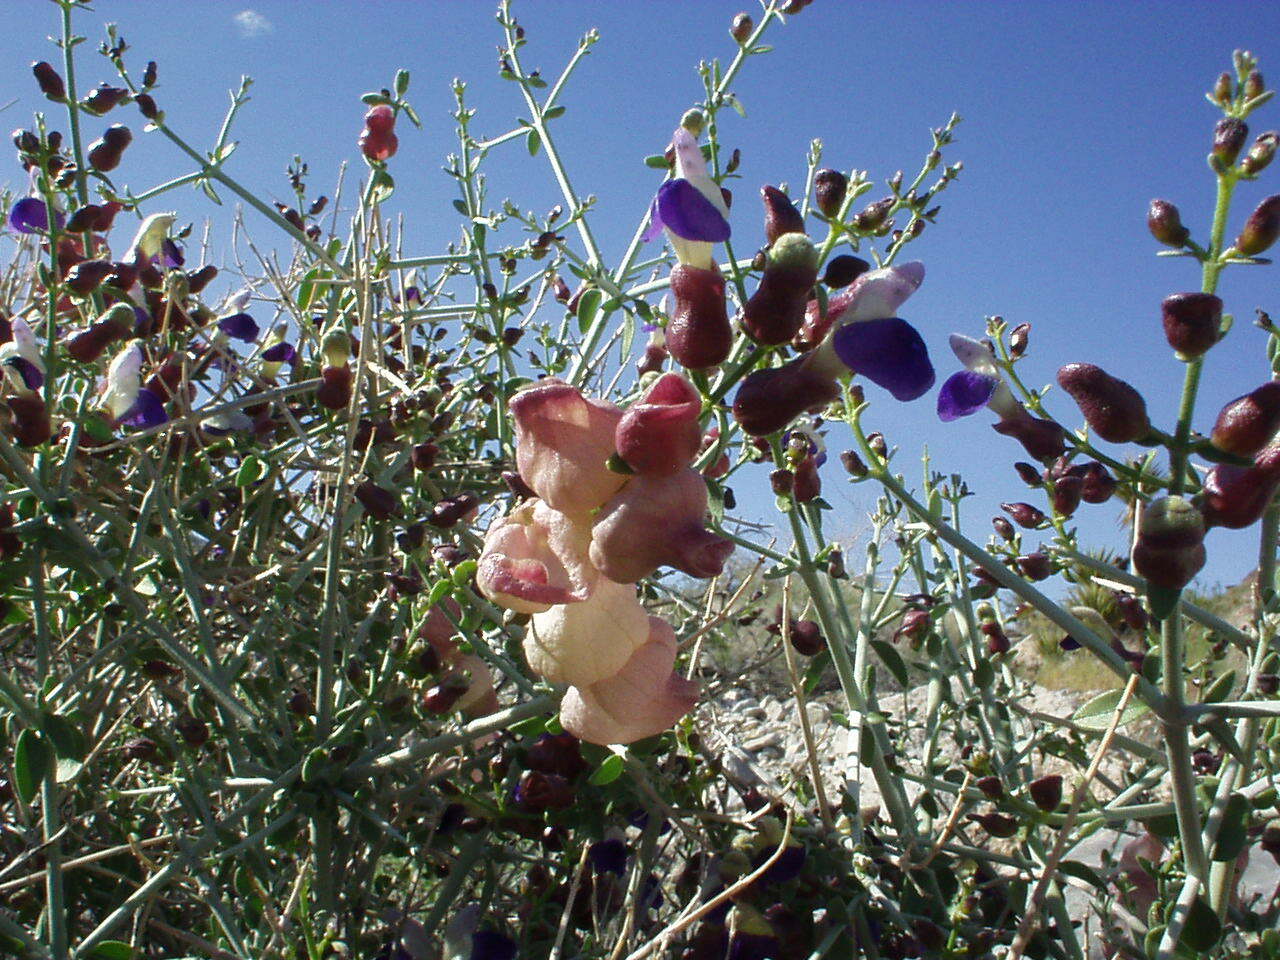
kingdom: Plantae
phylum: Tracheophyta
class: Magnoliopsida
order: Lamiales
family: Lamiaceae
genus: Scutellaria
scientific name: Scutellaria mexicana
